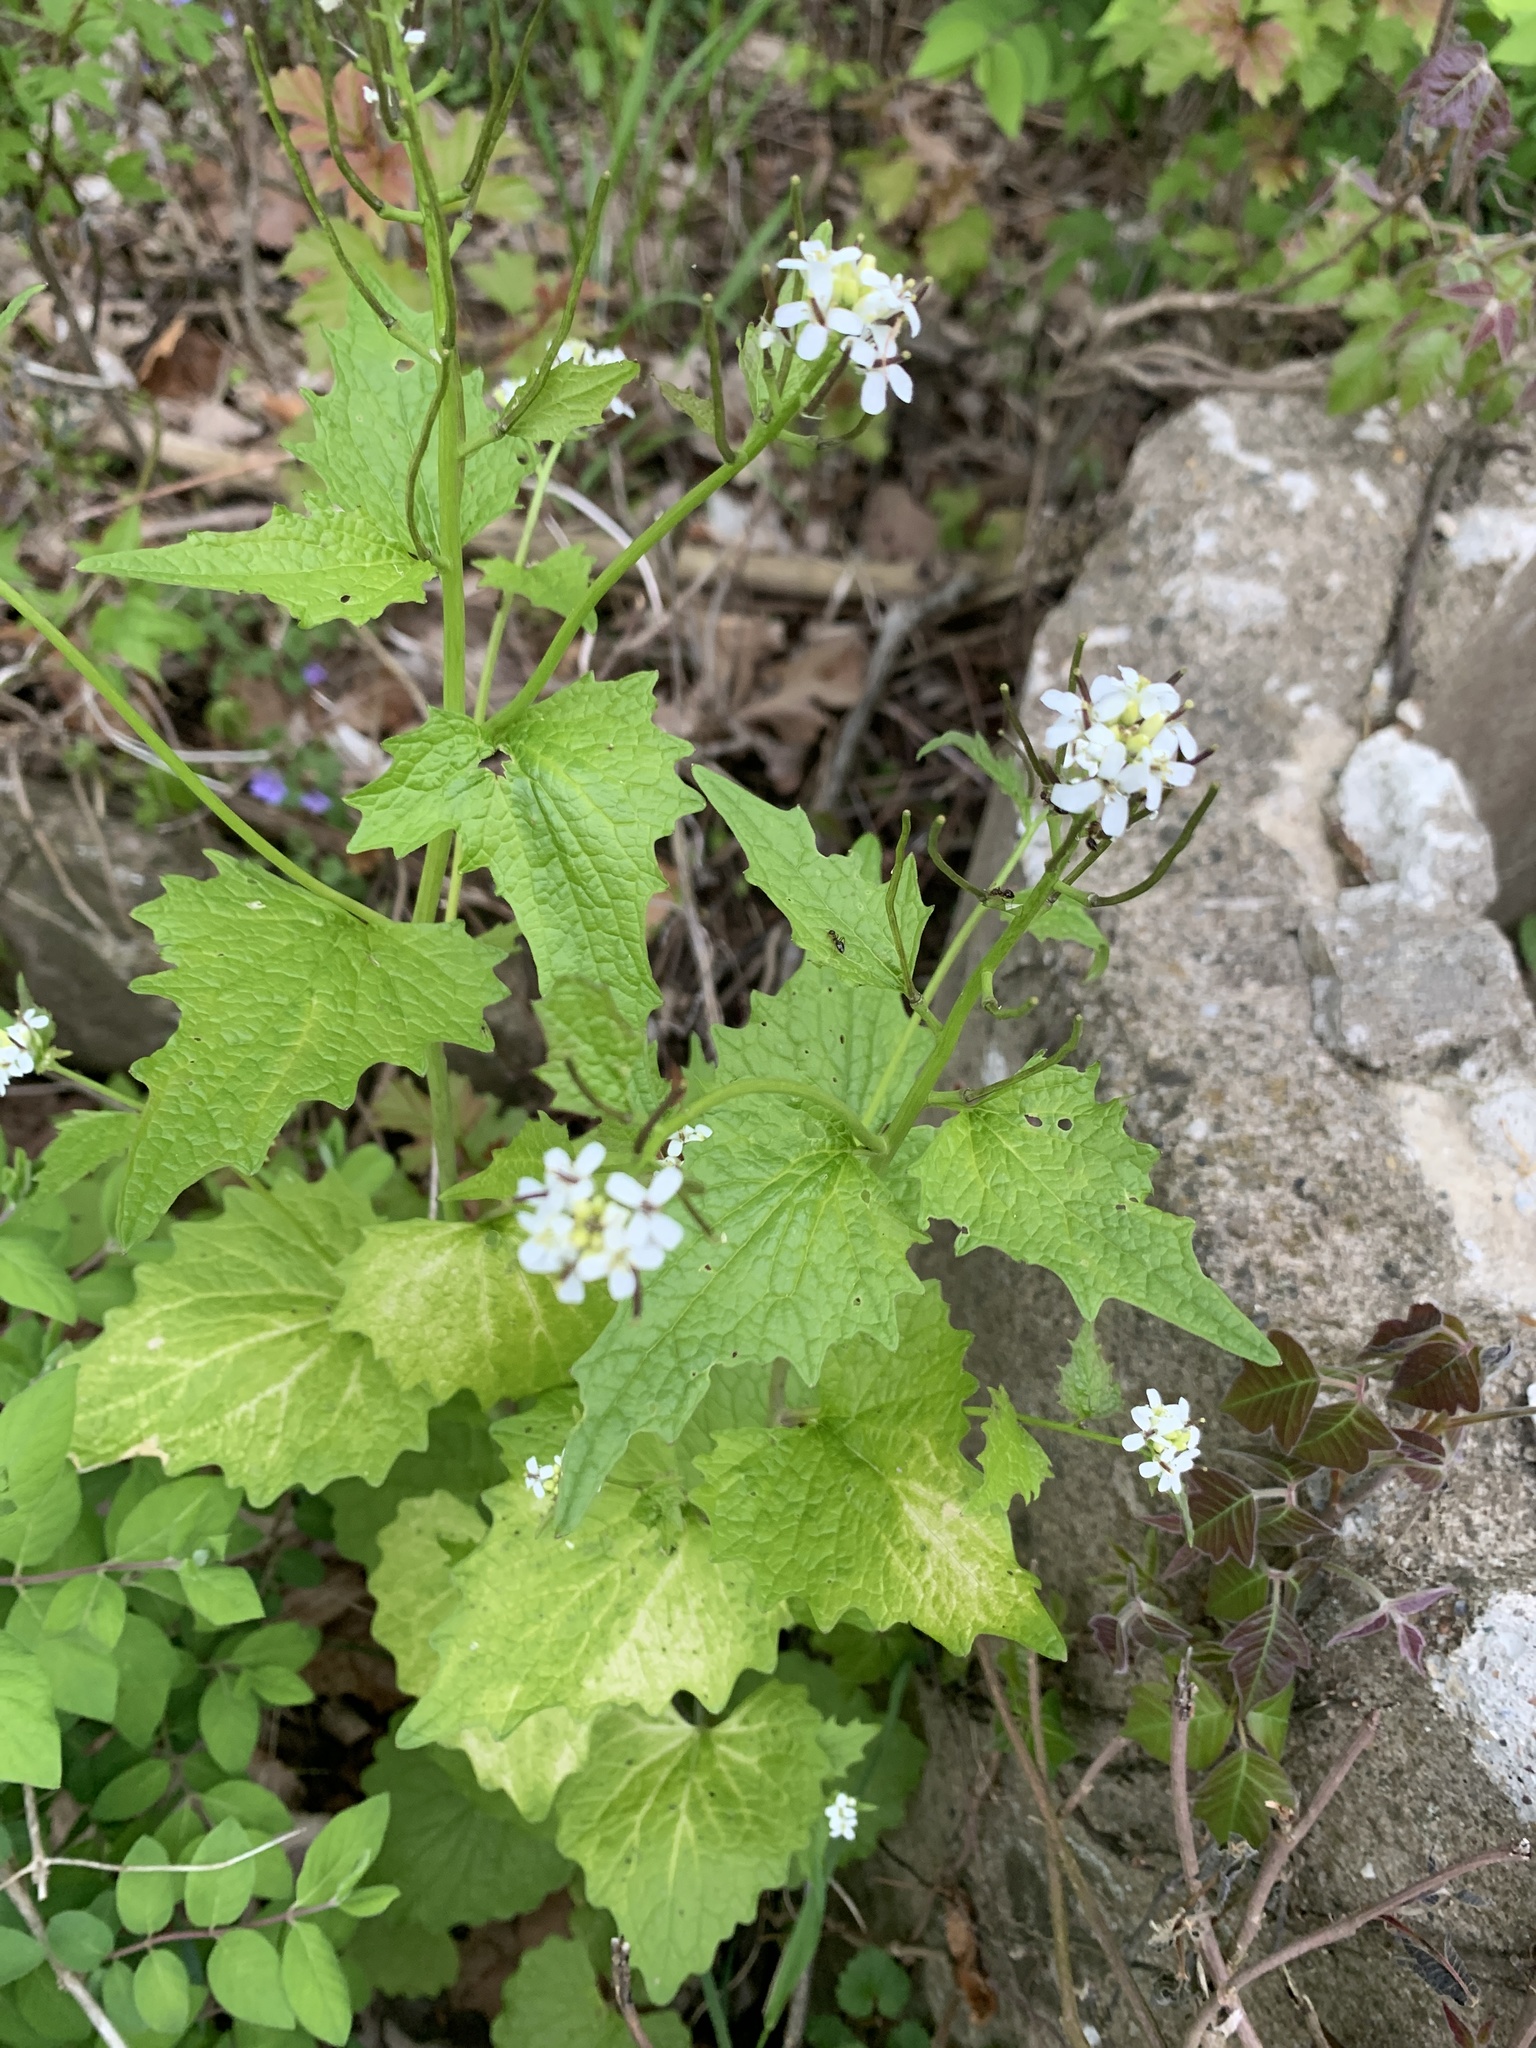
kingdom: Plantae
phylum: Tracheophyta
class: Magnoliopsida
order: Brassicales
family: Brassicaceae
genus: Alliaria
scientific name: Alliaria petiolata
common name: Garlic mustard
